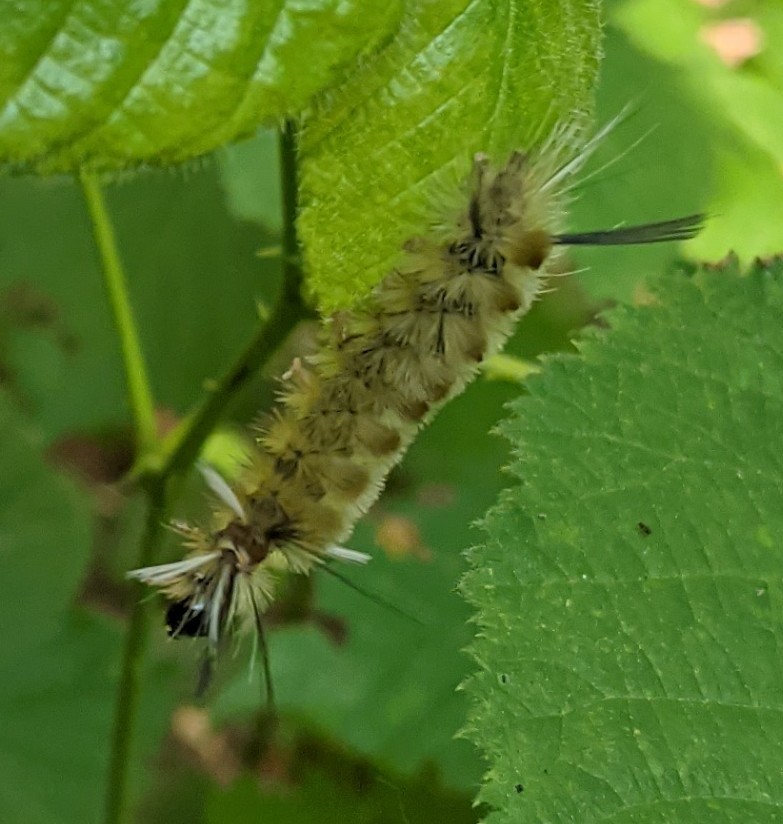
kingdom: Animalia
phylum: Arthropoda
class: Insecta
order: Lepidoptera
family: Erebidae
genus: Halysidota
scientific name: Halysidota tessellaris
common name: Banded tussock moth
